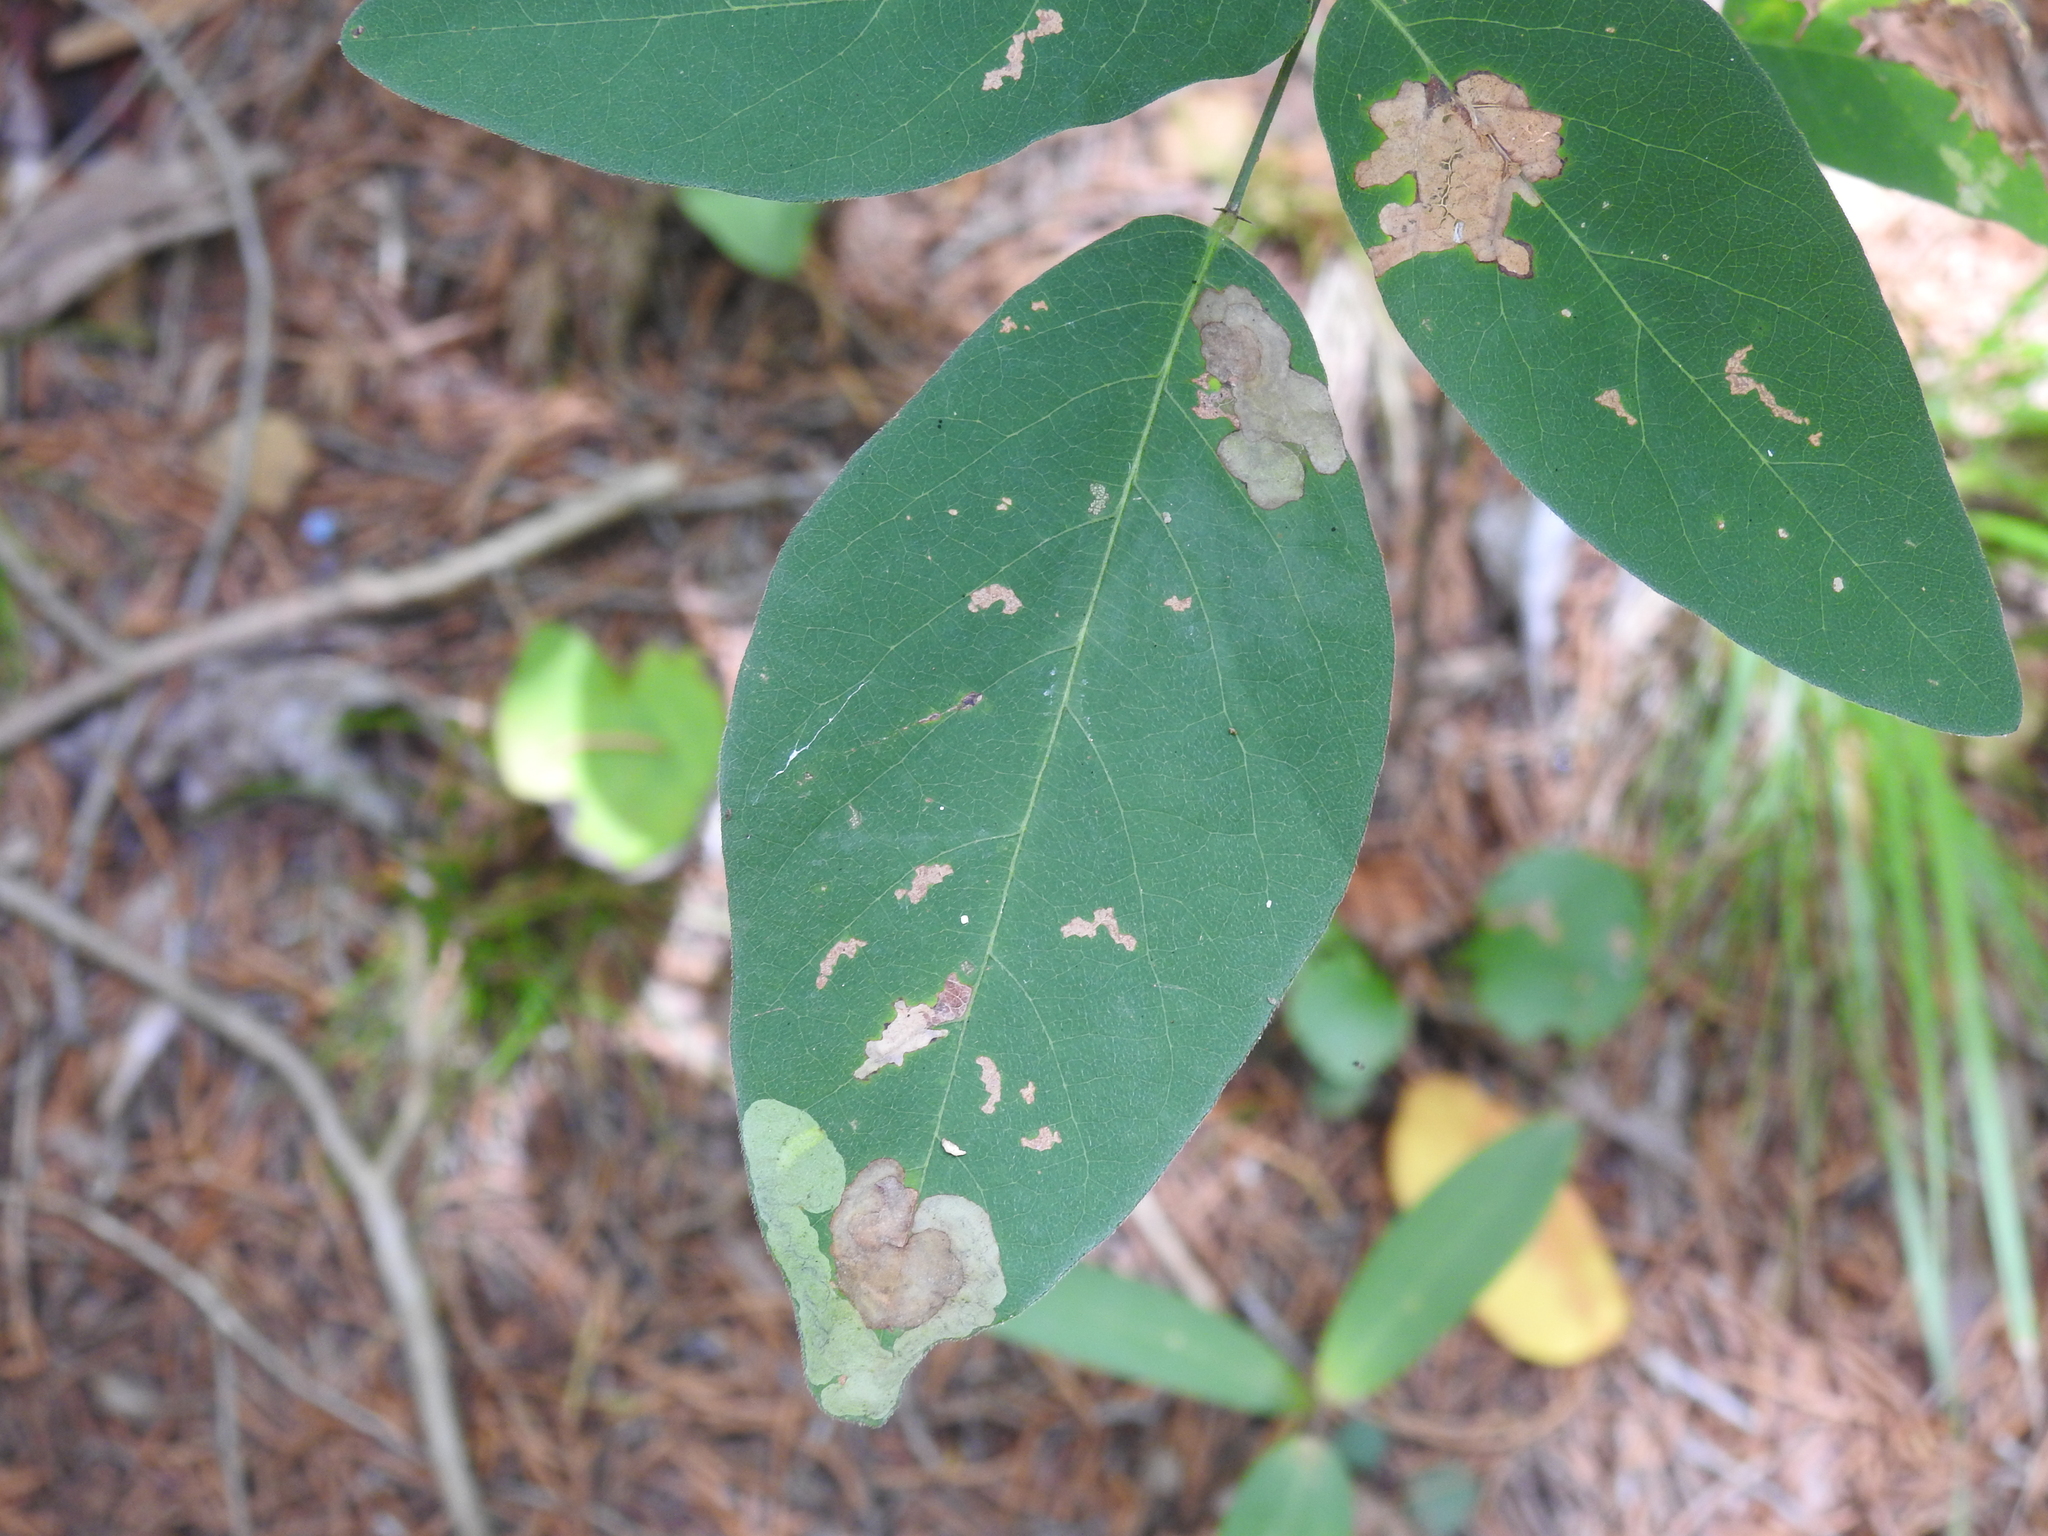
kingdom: Animalia
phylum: Arthropoda
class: Insecta
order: Coleoptera
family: Buprestidae
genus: Pachyschelus
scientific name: Pachyschelus laevigatus
